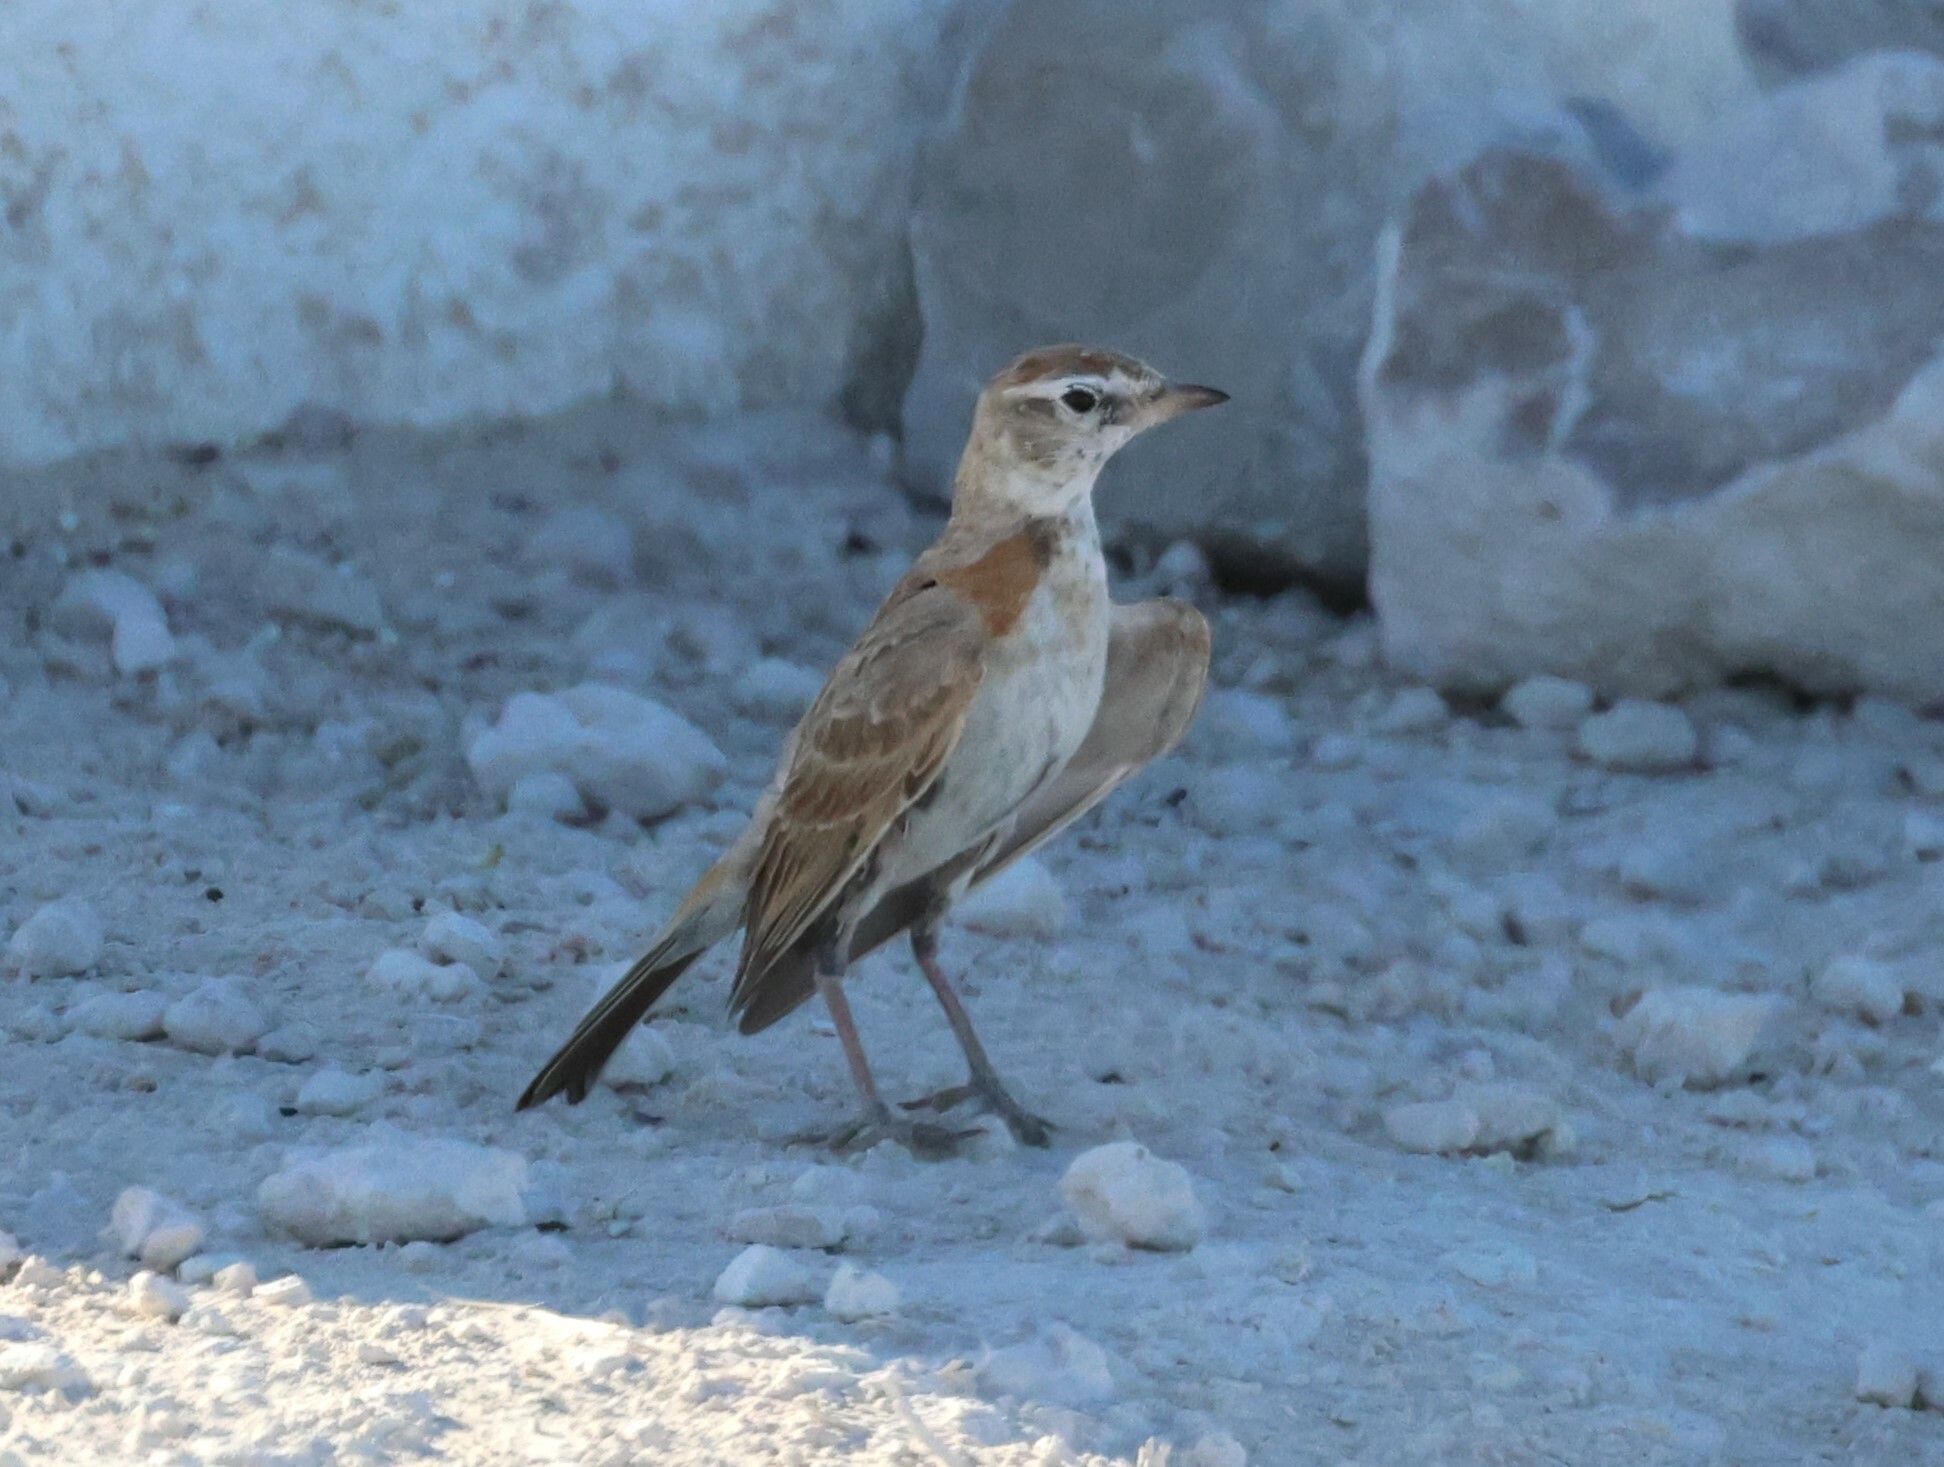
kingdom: Animalia
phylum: Chordata
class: Aves
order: Passeriformes
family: Alaudidae
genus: Calandrella
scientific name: Calandrella cinerea
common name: Red-capped lark
